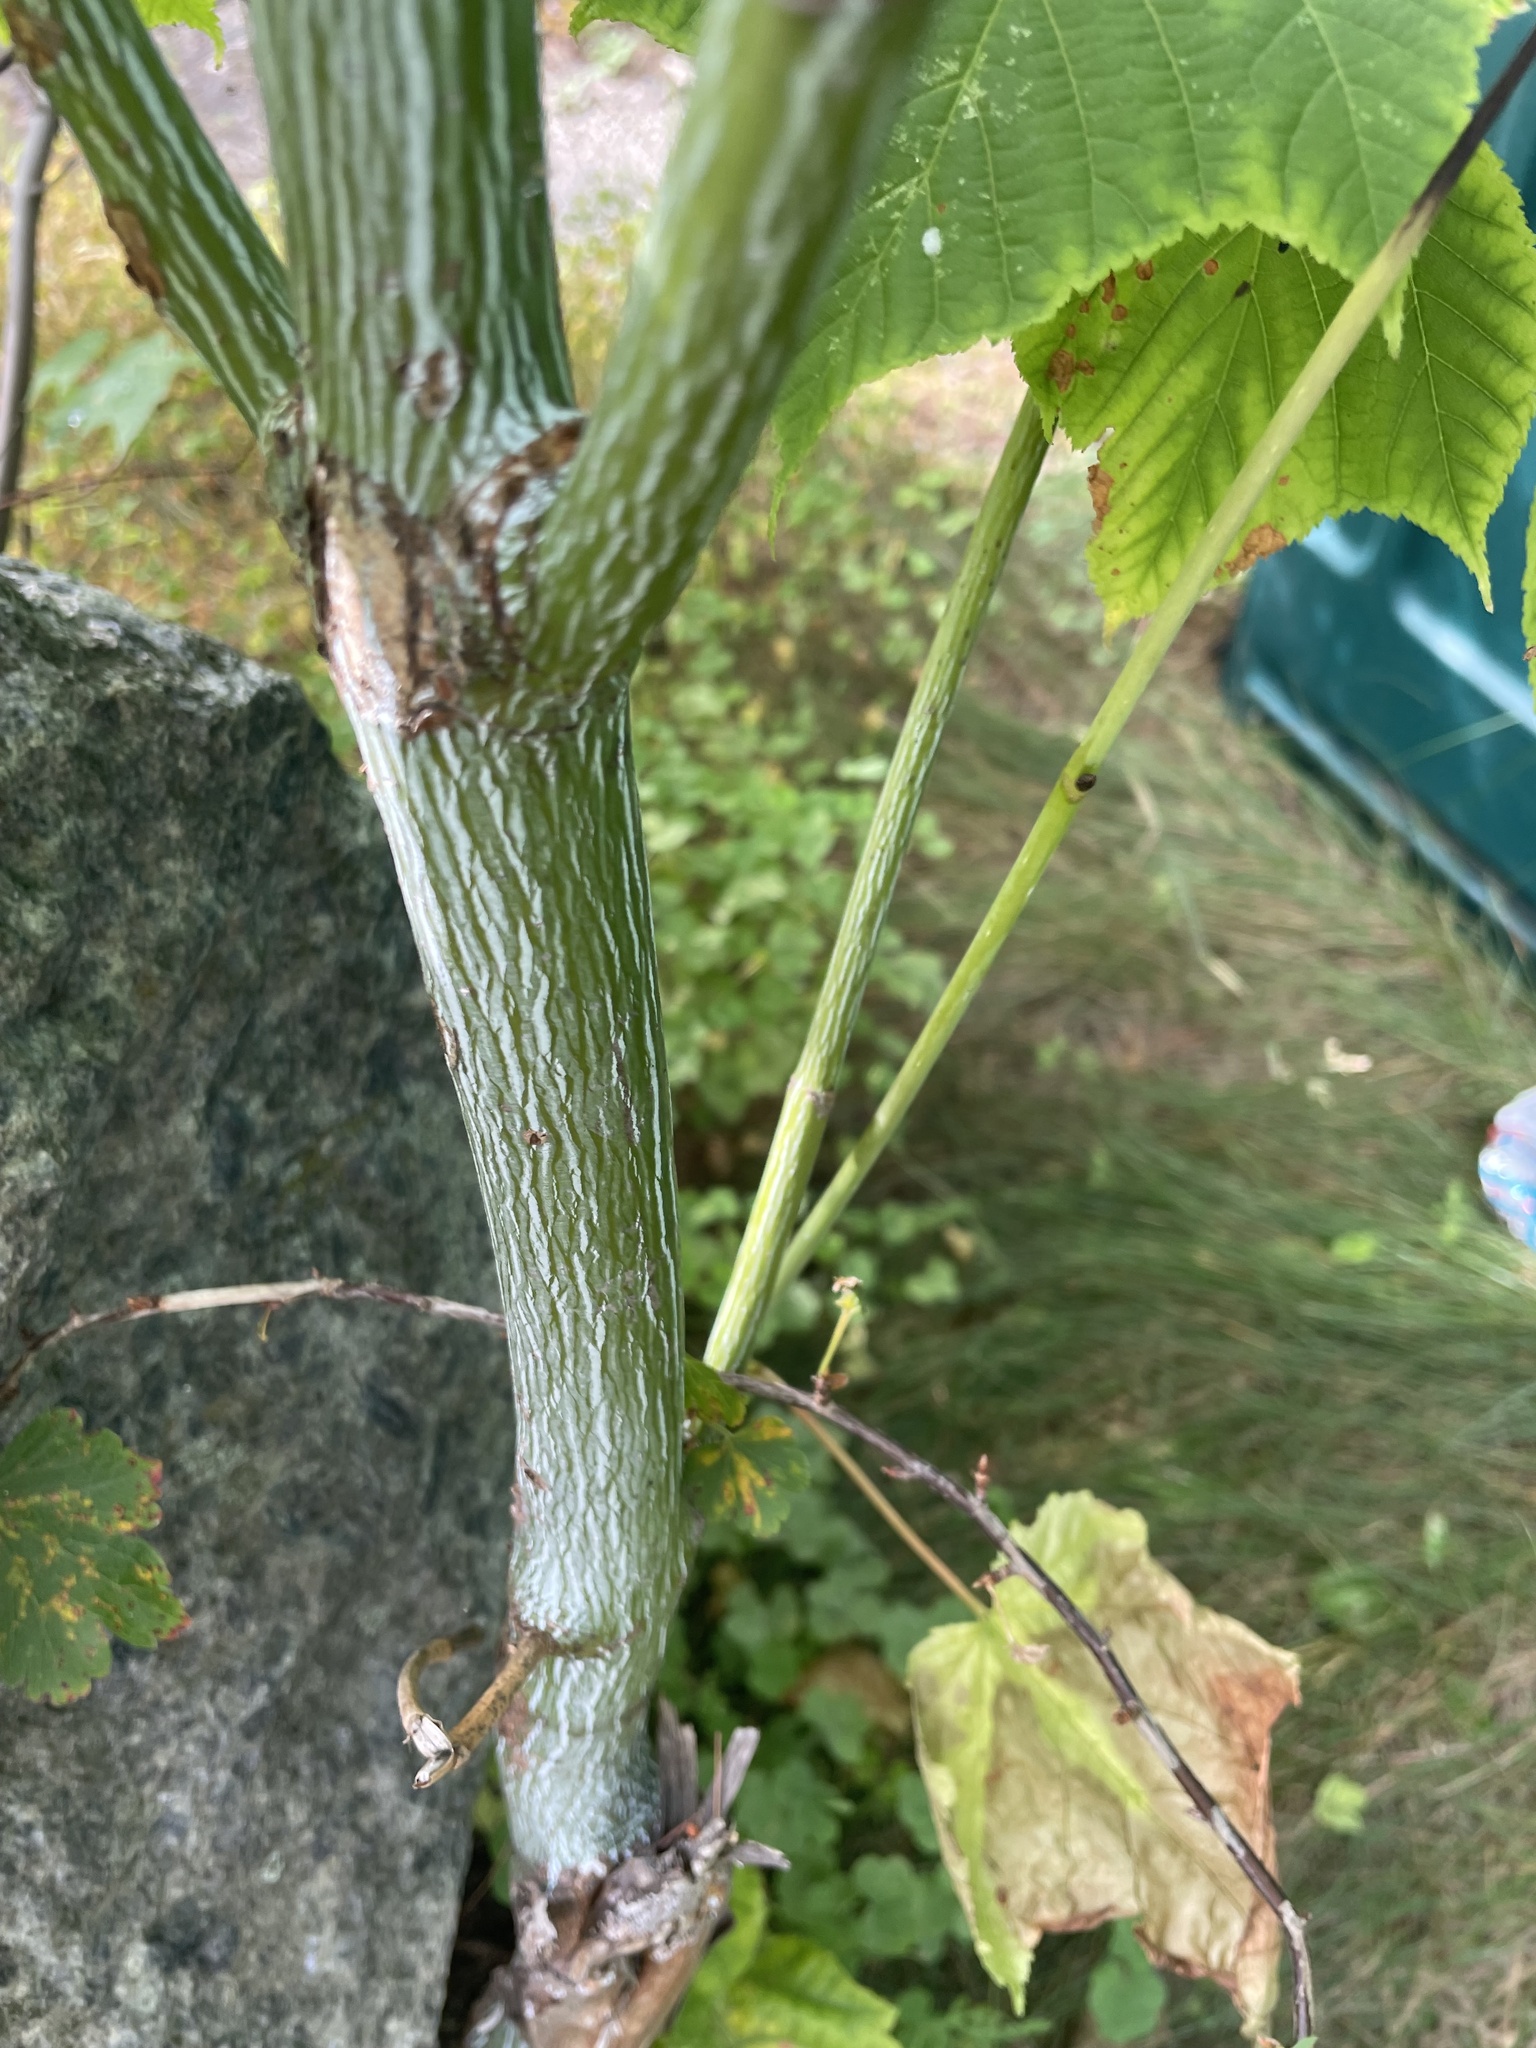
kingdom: Plantae
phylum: Tracheophyta
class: Magnoliopsida
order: Sapindales
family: Sapindaceae
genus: Acer
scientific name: Acer pensylvanicum
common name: Moosewood
